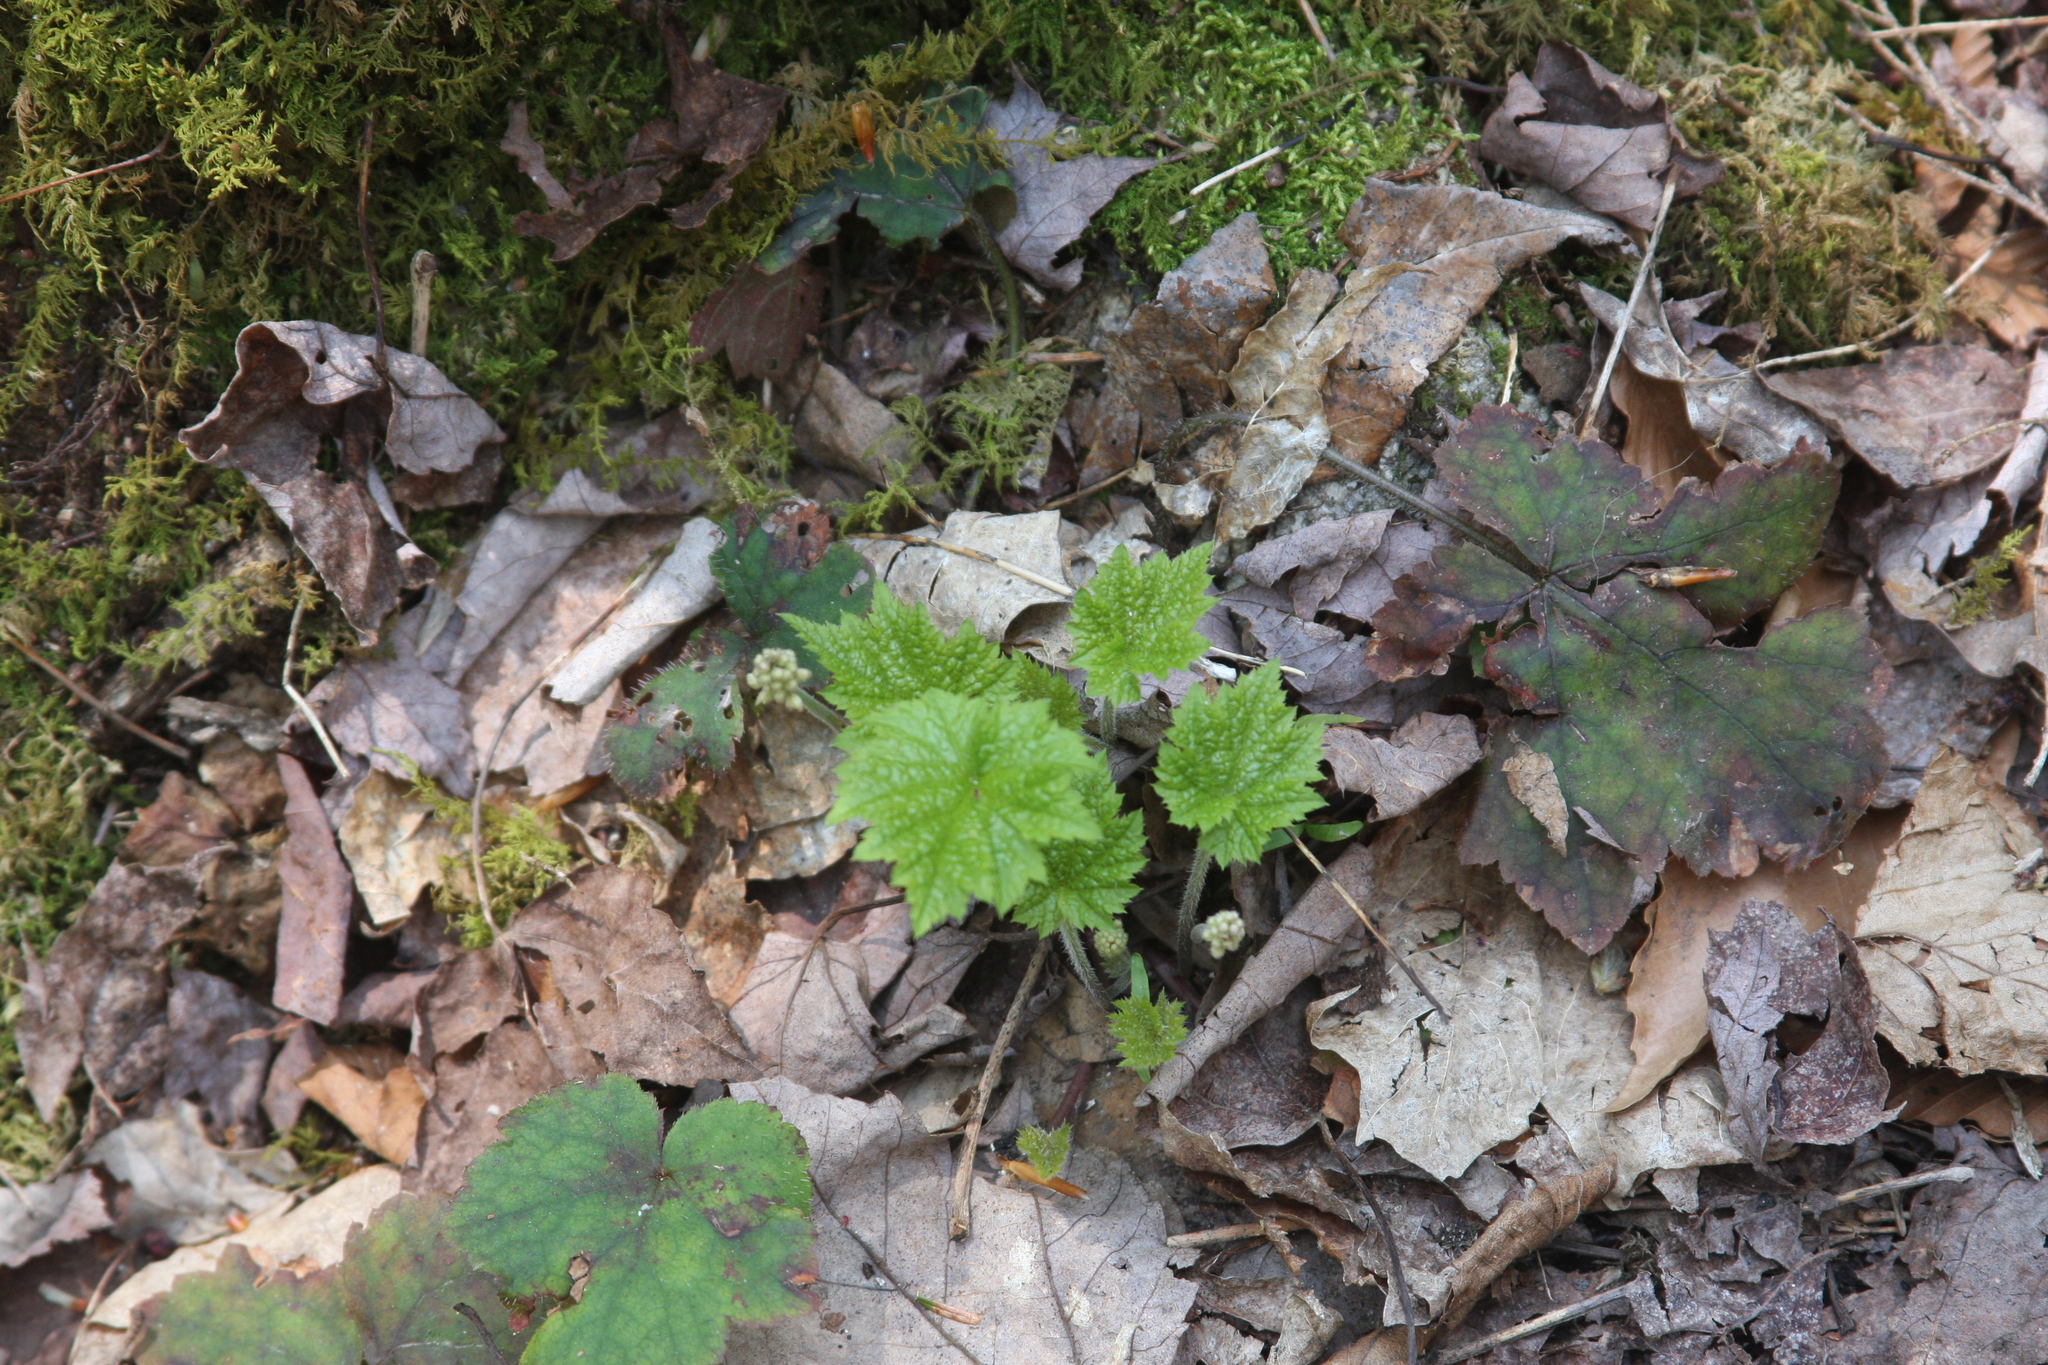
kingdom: Plantae
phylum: Tracheophyta
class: Magnoliopsida
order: Saxifragales
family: Saxifragaceae
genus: Tiarella
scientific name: Tiarella stolonifera
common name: Stoloniferous foamflower
